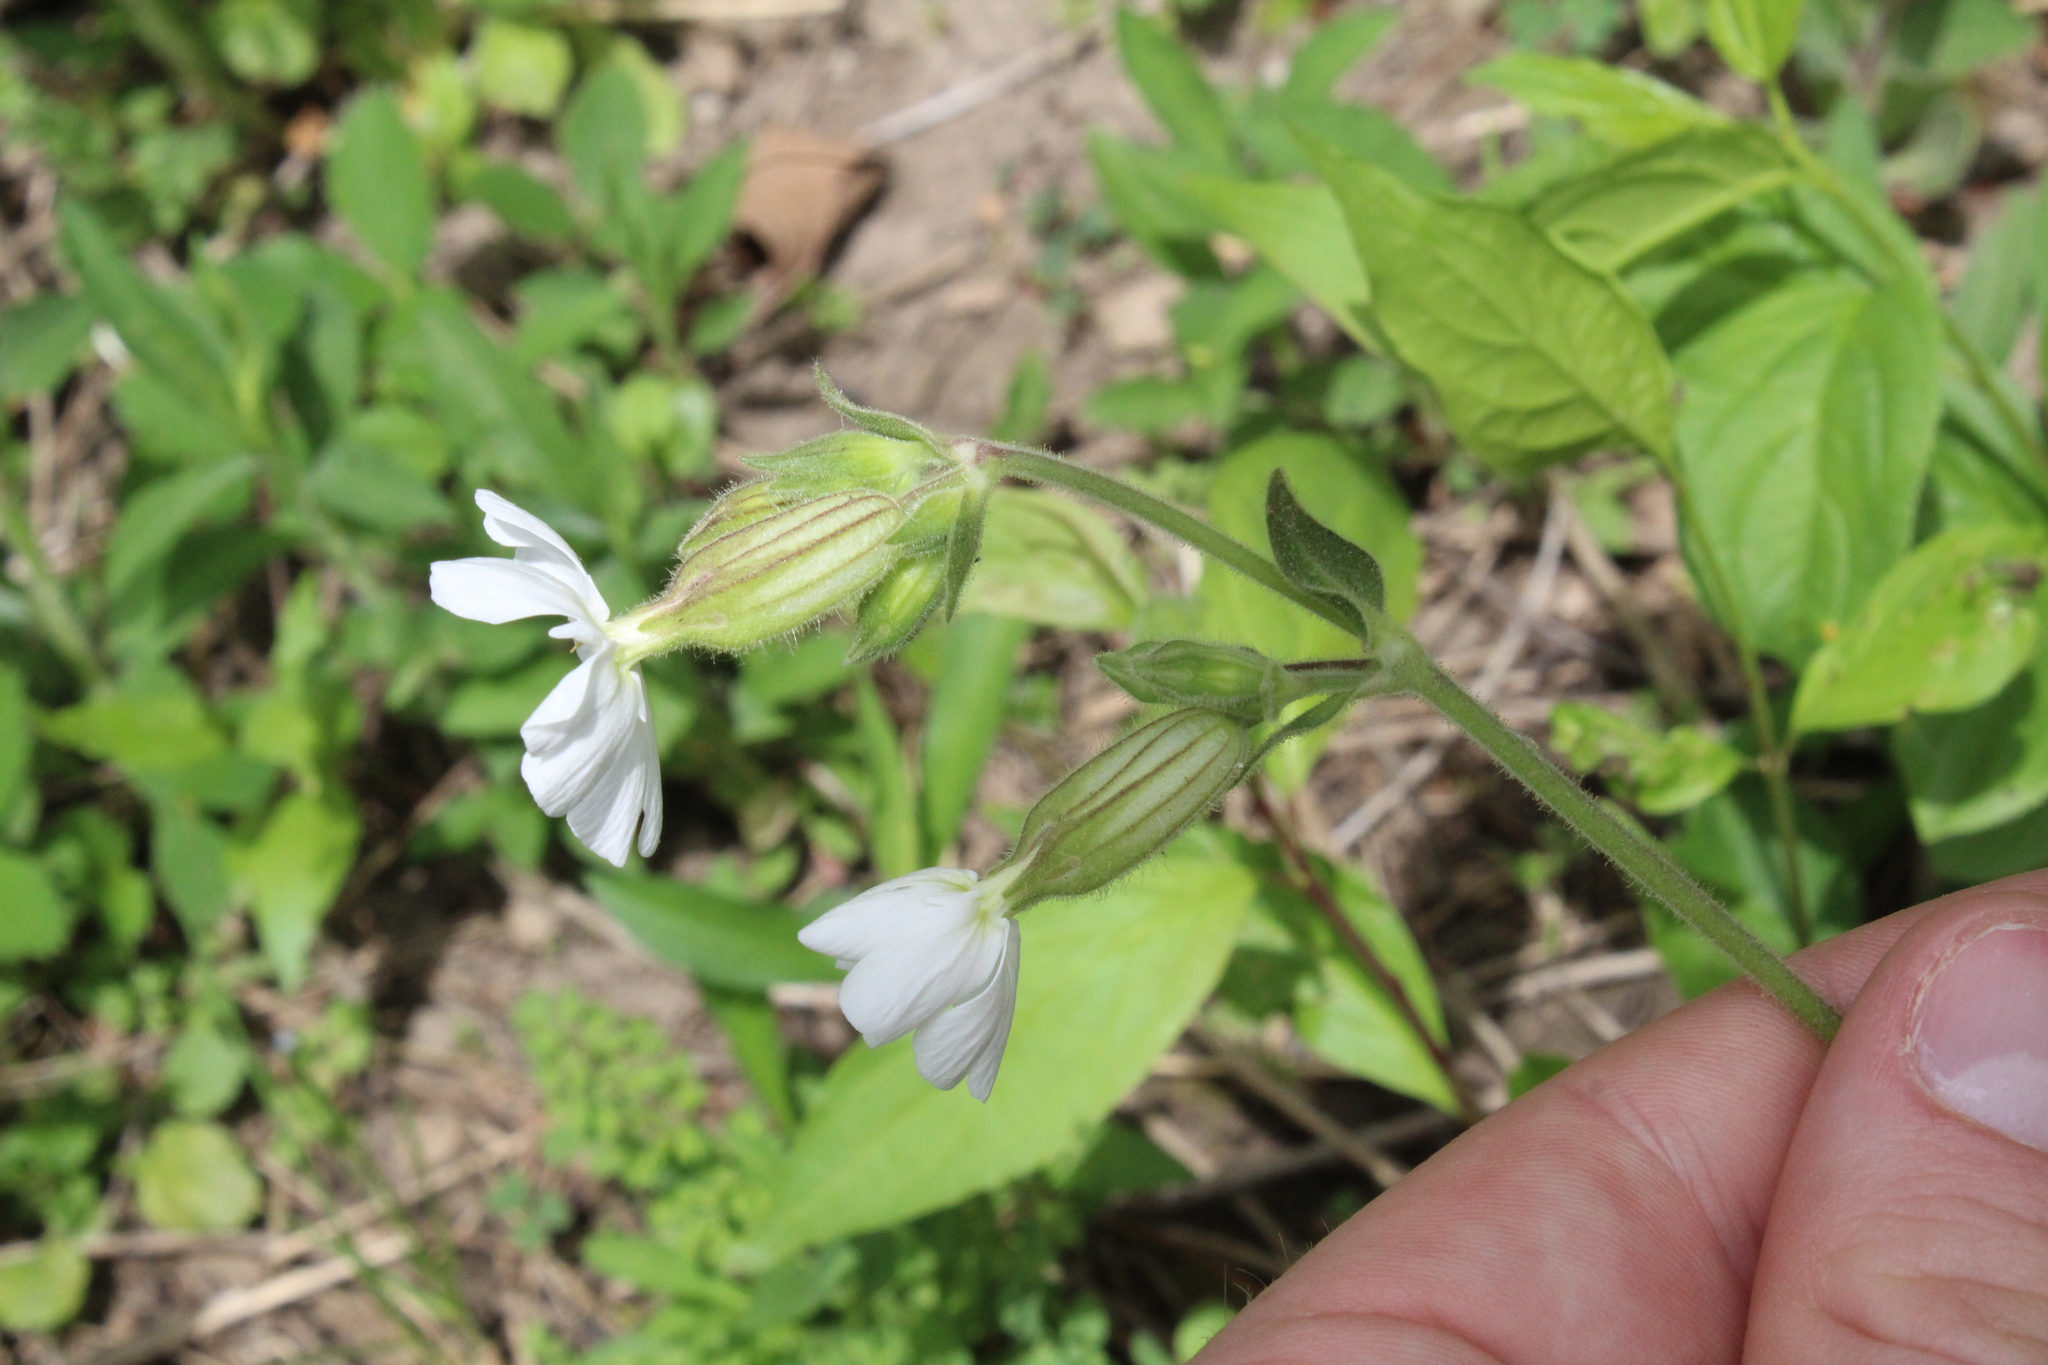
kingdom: Plantae
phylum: Tracheophyta
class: Magnoliopsida
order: Caryophyllales
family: Caryophyllaceae
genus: Silene
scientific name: Silene latifolia
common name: White campion
